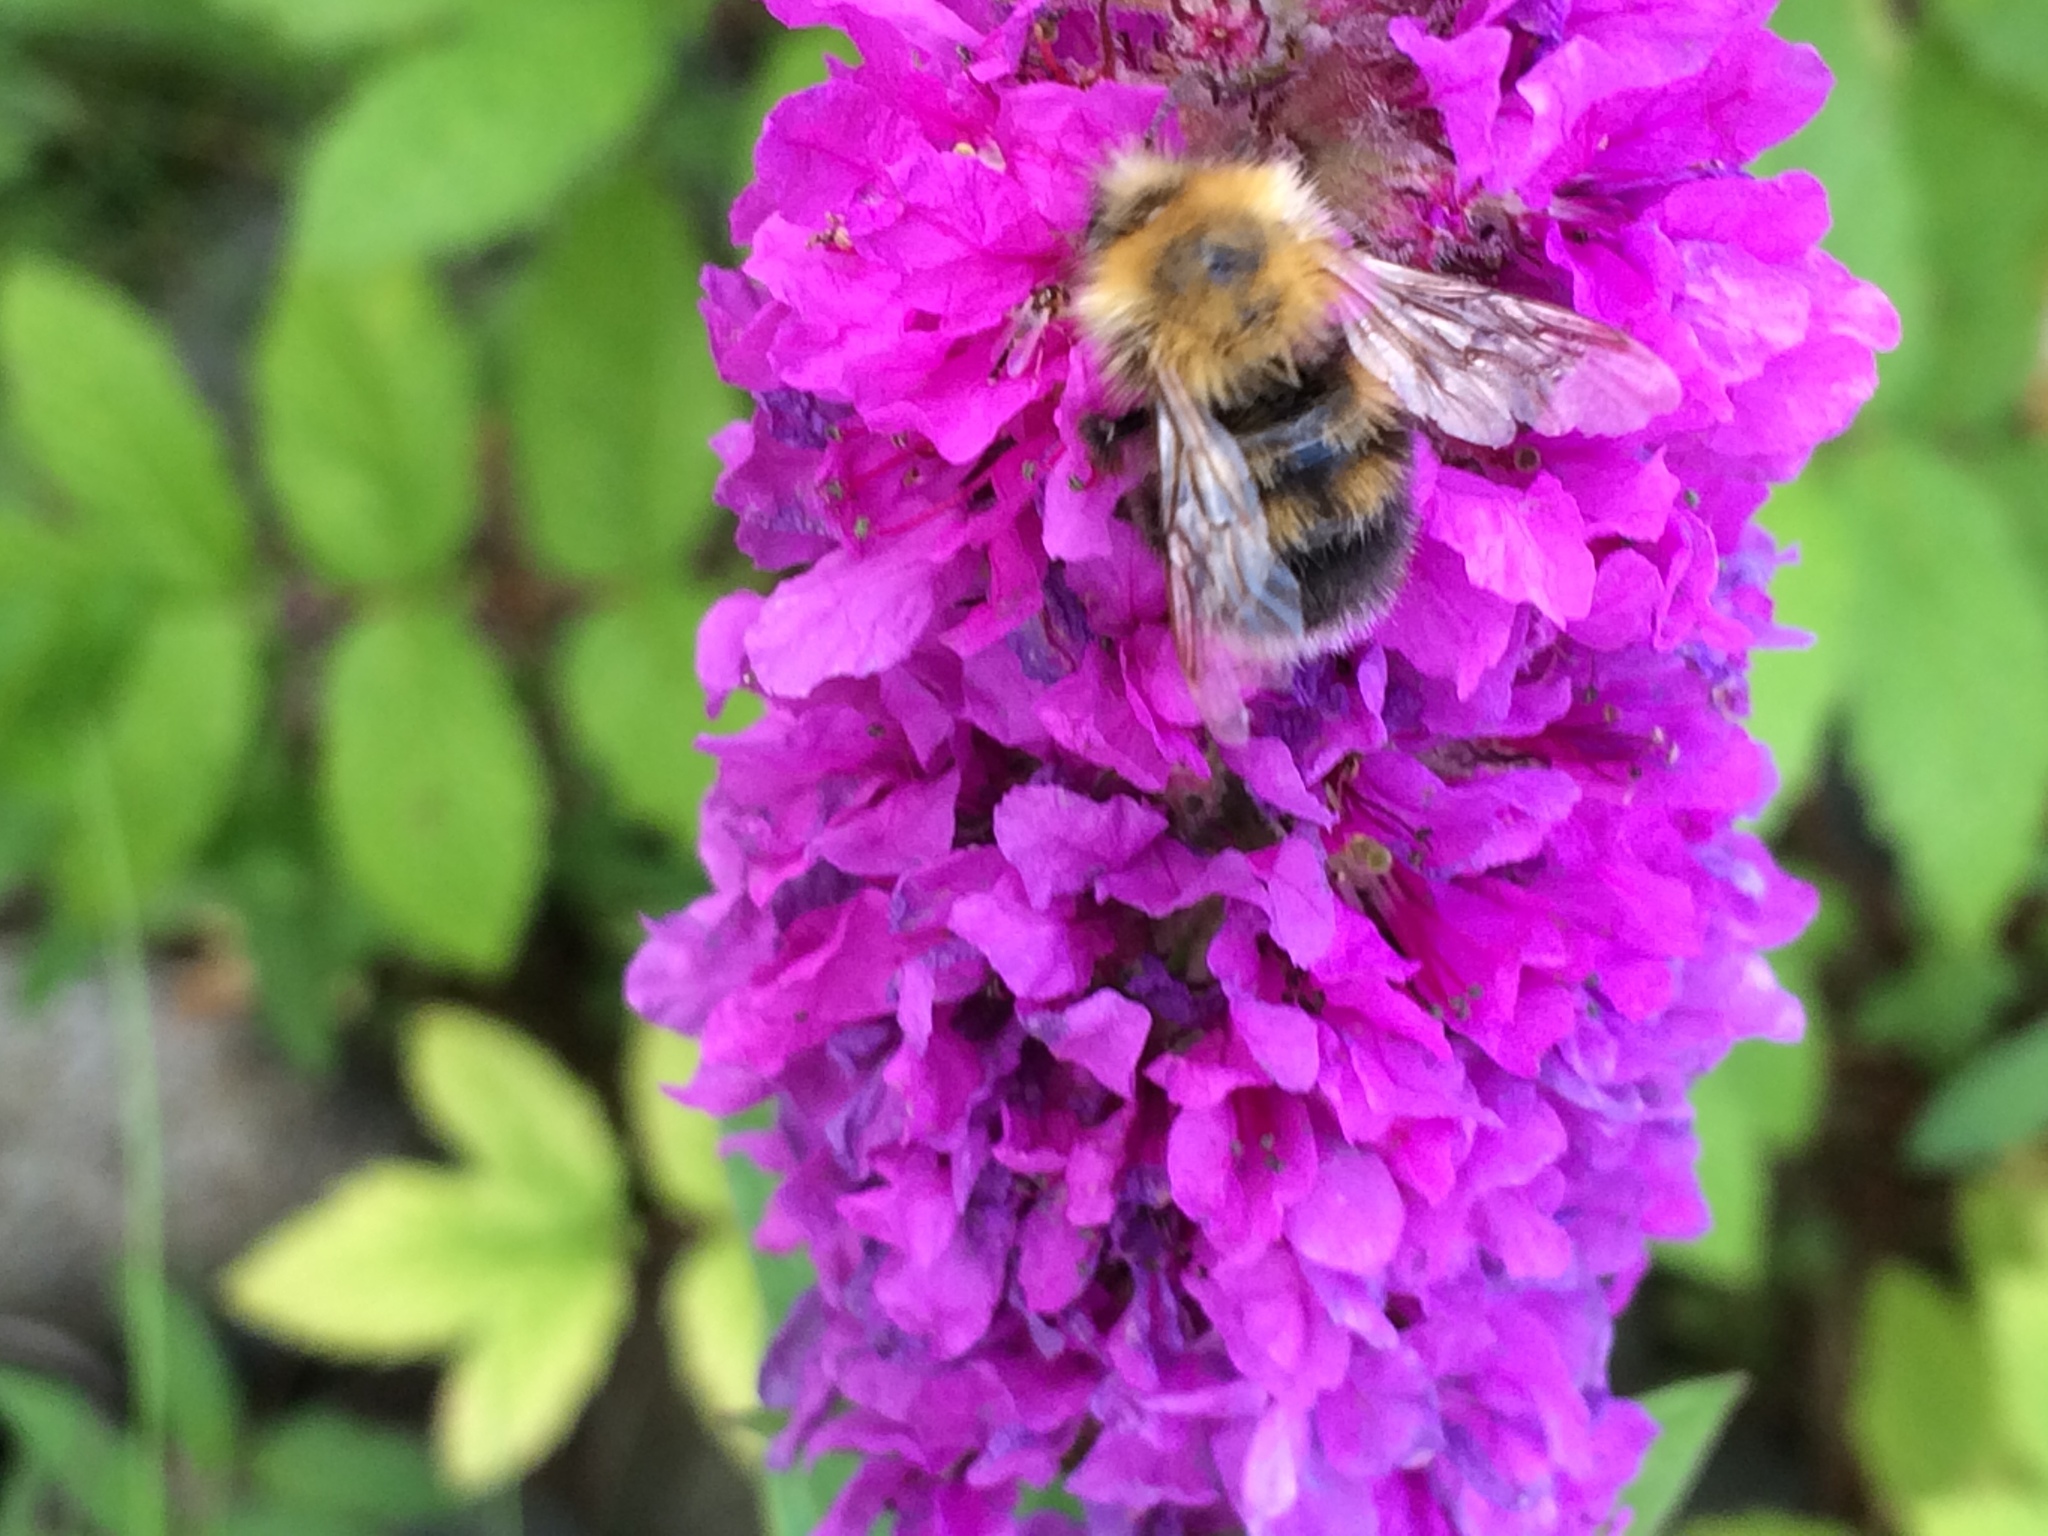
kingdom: Animalia
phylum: Arthropoda
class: Insecta
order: Hymenoptera
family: Apidae
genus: Bombus
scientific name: Bombus hypnorum
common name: New garden bumblebee
